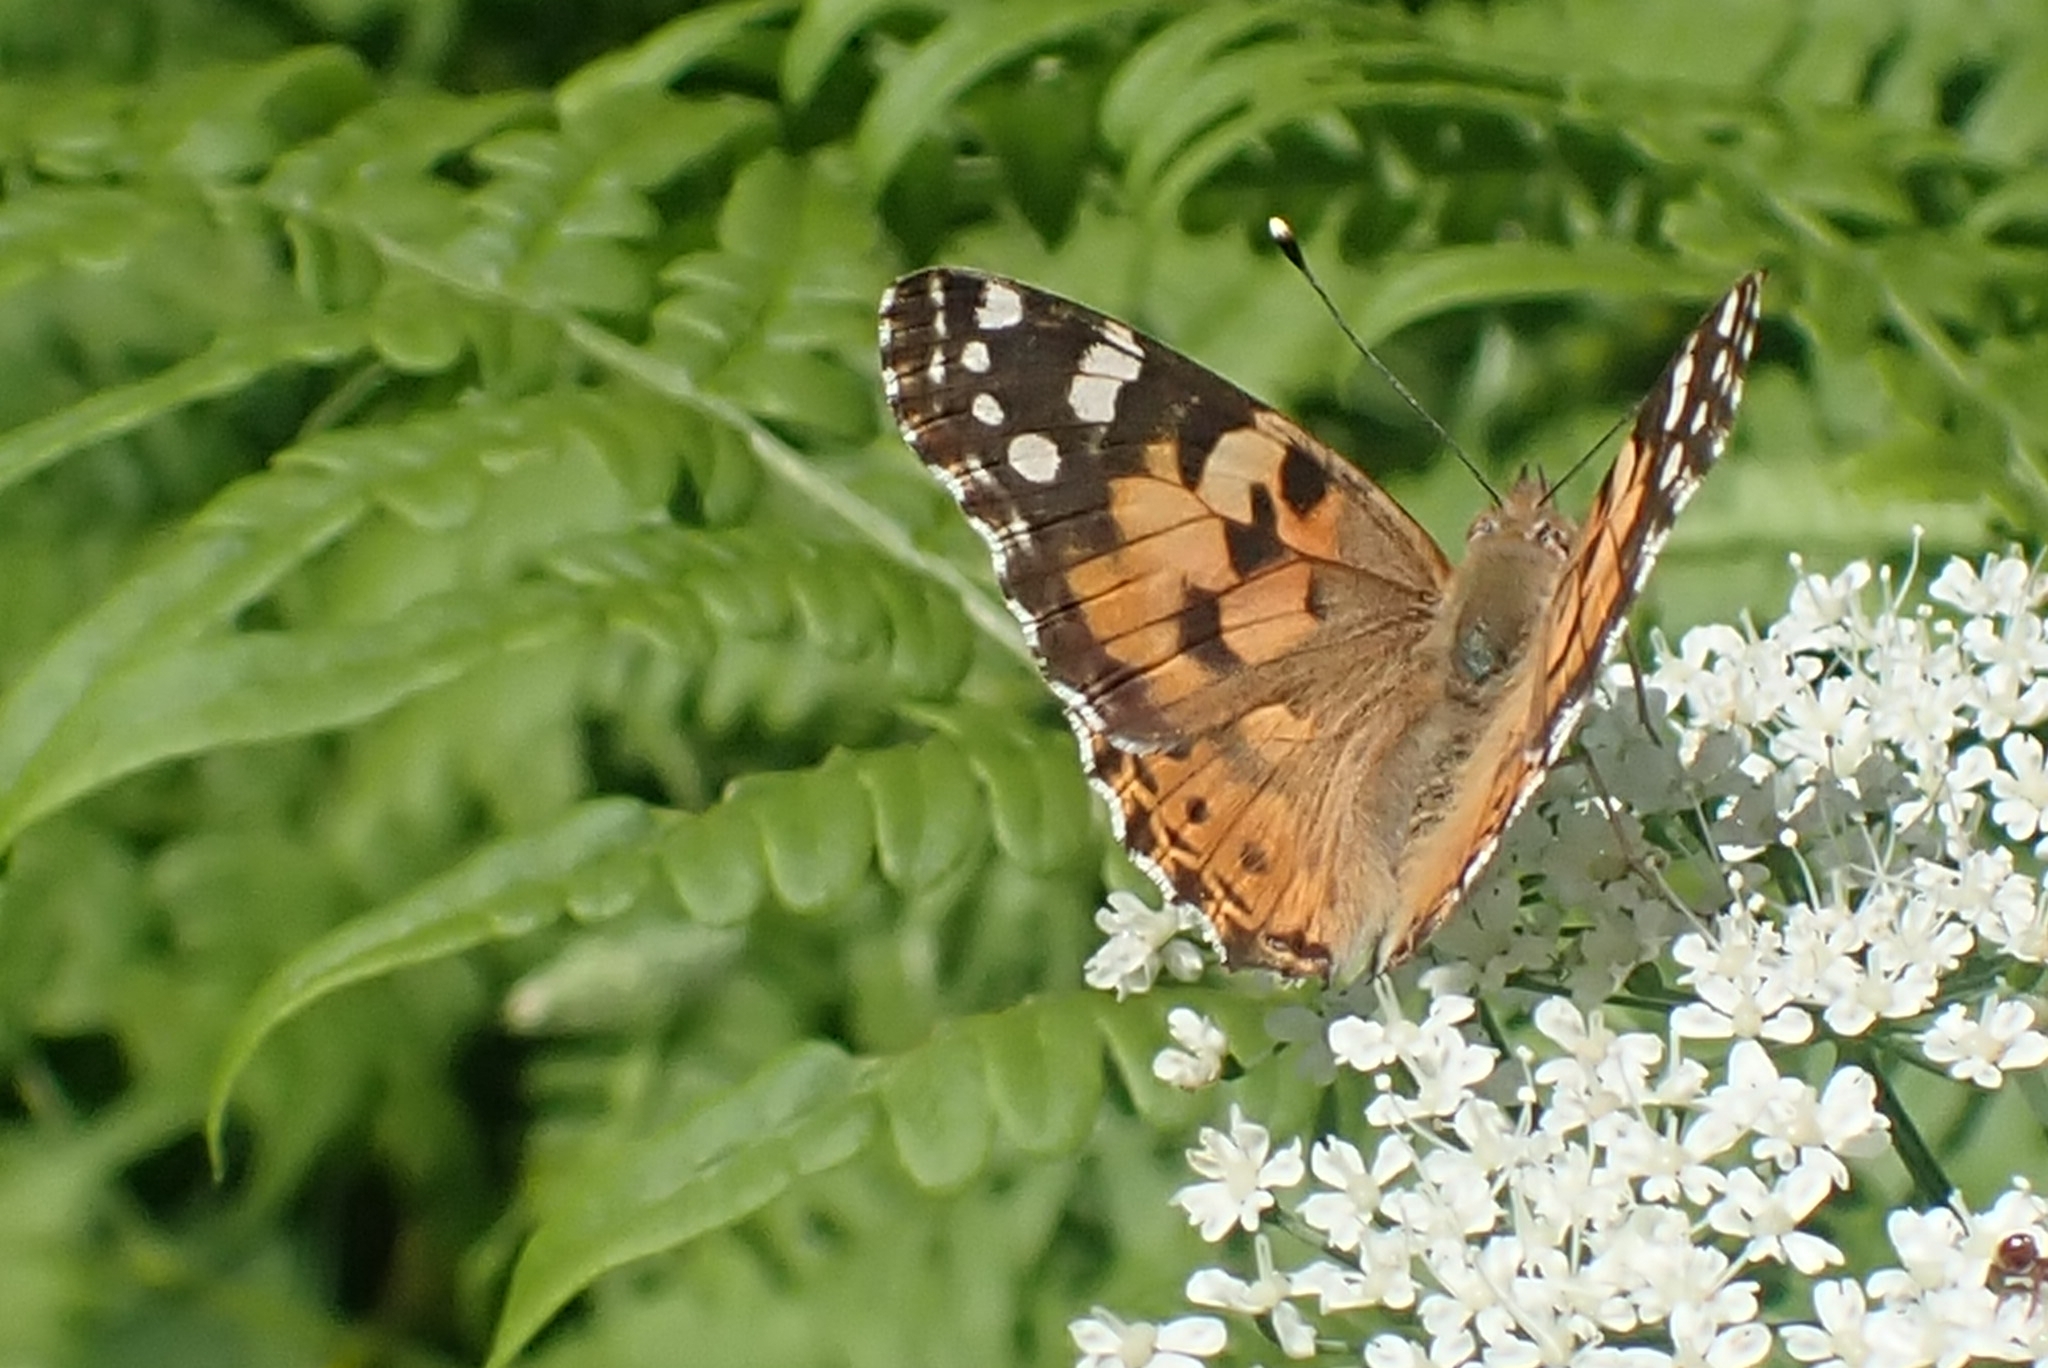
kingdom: Animalia
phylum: Arthropoda
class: Insecta
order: Lepidoptera
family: Nymphalidae
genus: Vanessa
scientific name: Vanessa cardui
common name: Painted lady
